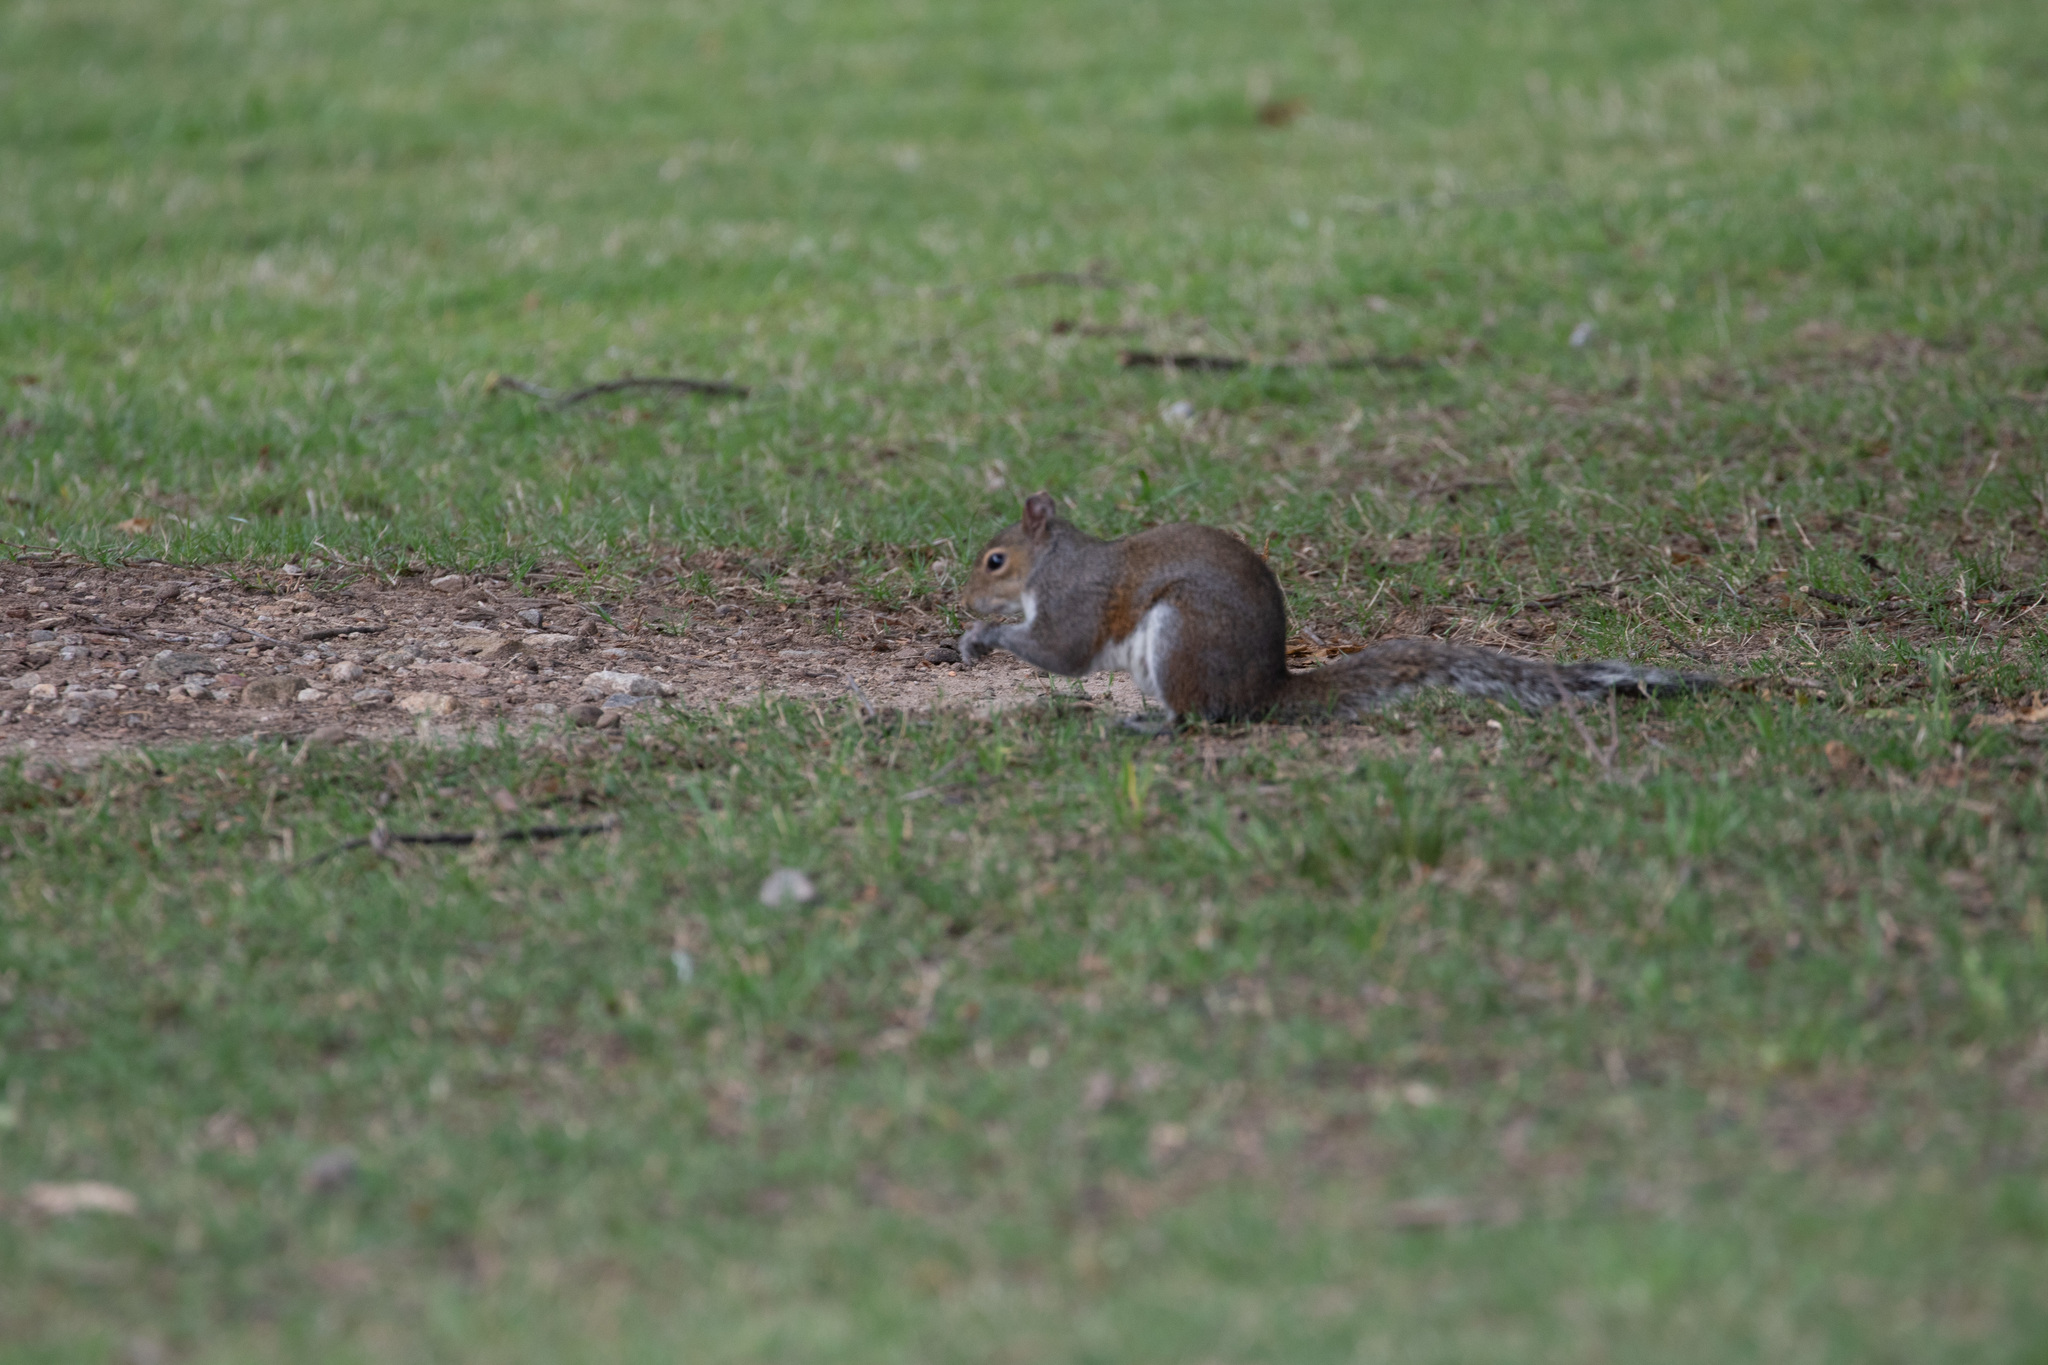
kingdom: Animalia
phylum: Chordata
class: Mammalia
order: Rodentia
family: Sciuridae
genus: Sciurus
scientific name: Sciurus carolinensis
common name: Eastern gray squirrel
